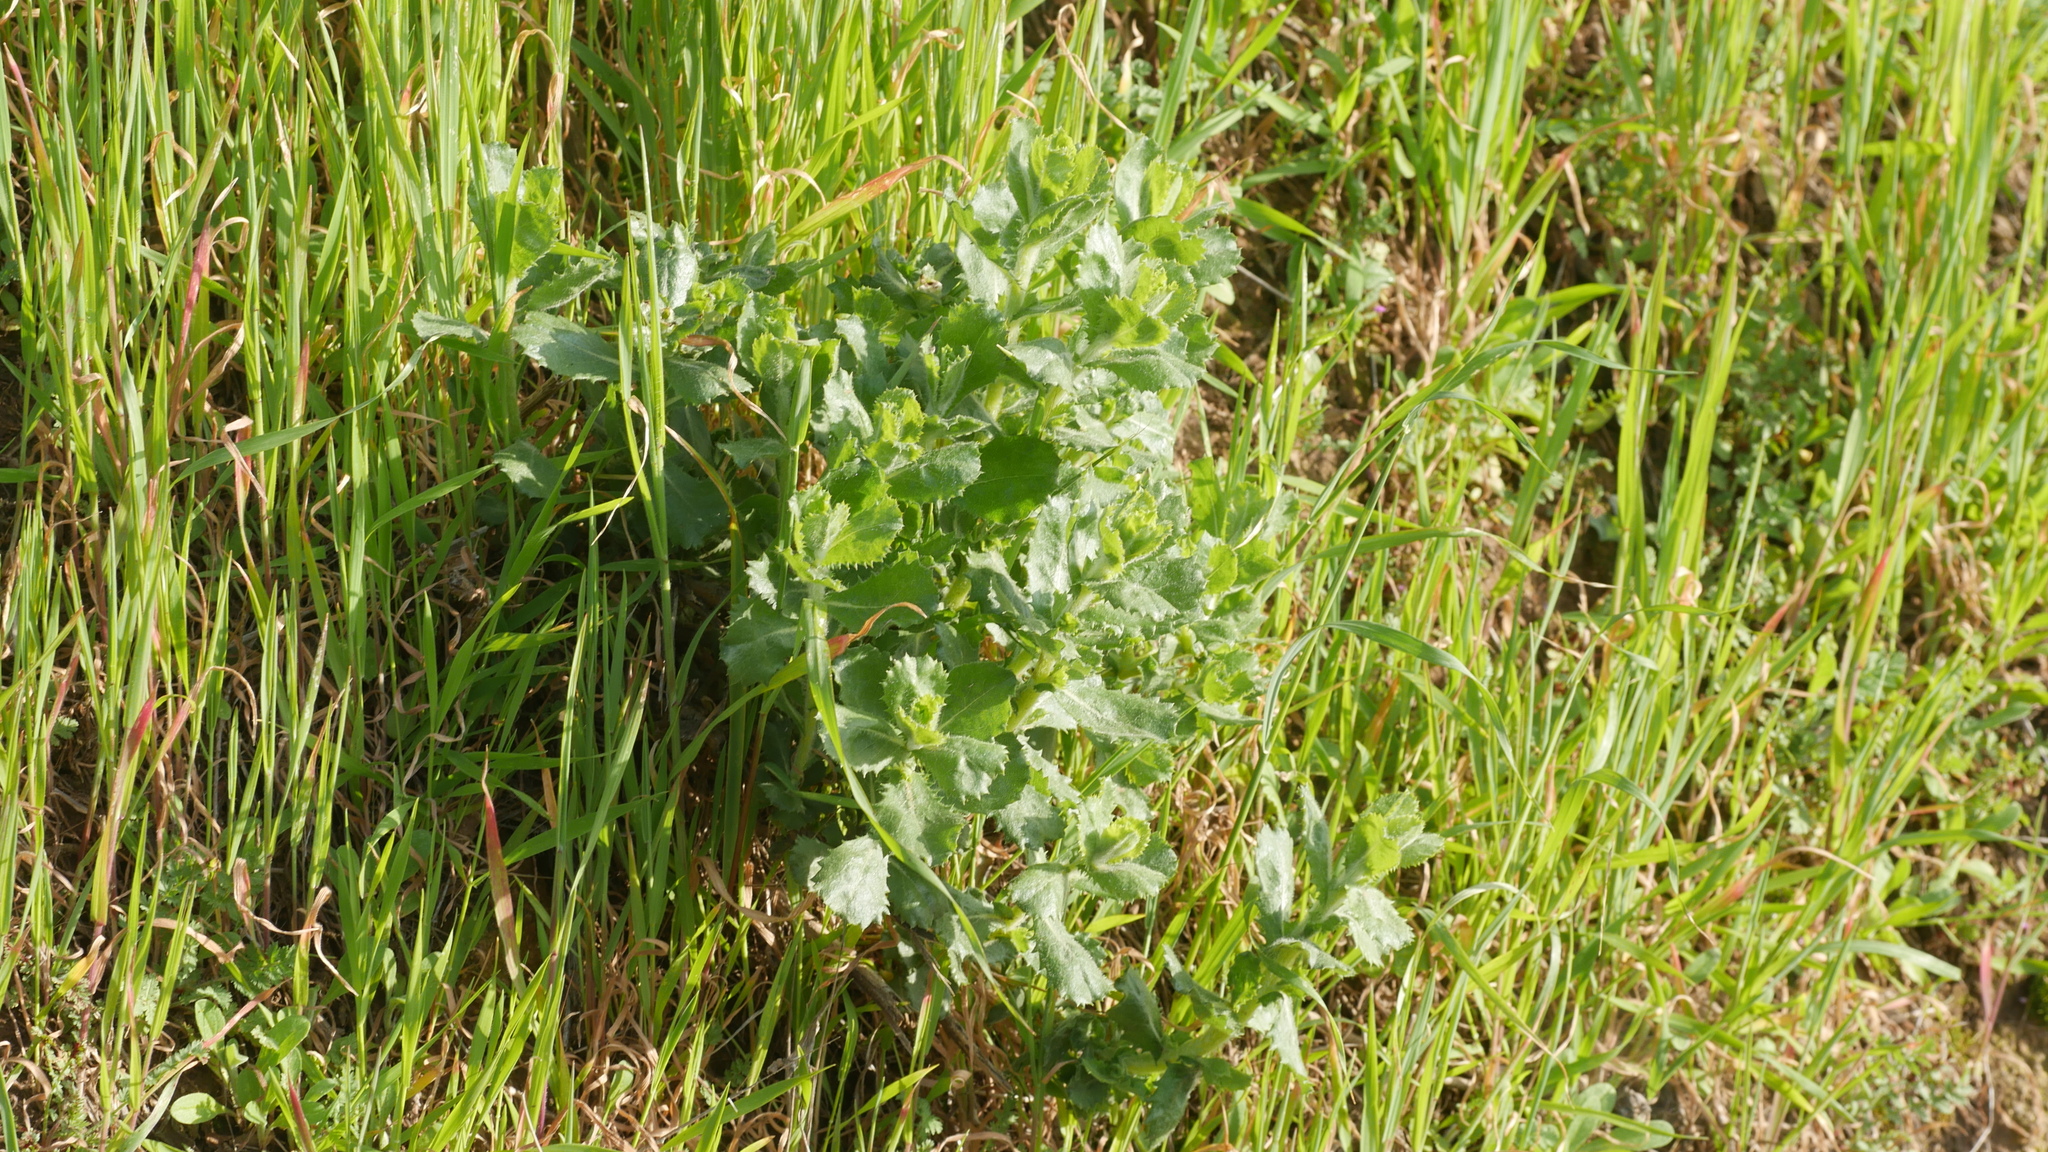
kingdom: Plantae
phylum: Tracheophyta
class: Magnoliopsida
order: Asterales
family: Asteraceae
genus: Hazardia
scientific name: Hazardia squarrosa
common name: Saw-tooth goldenbush
